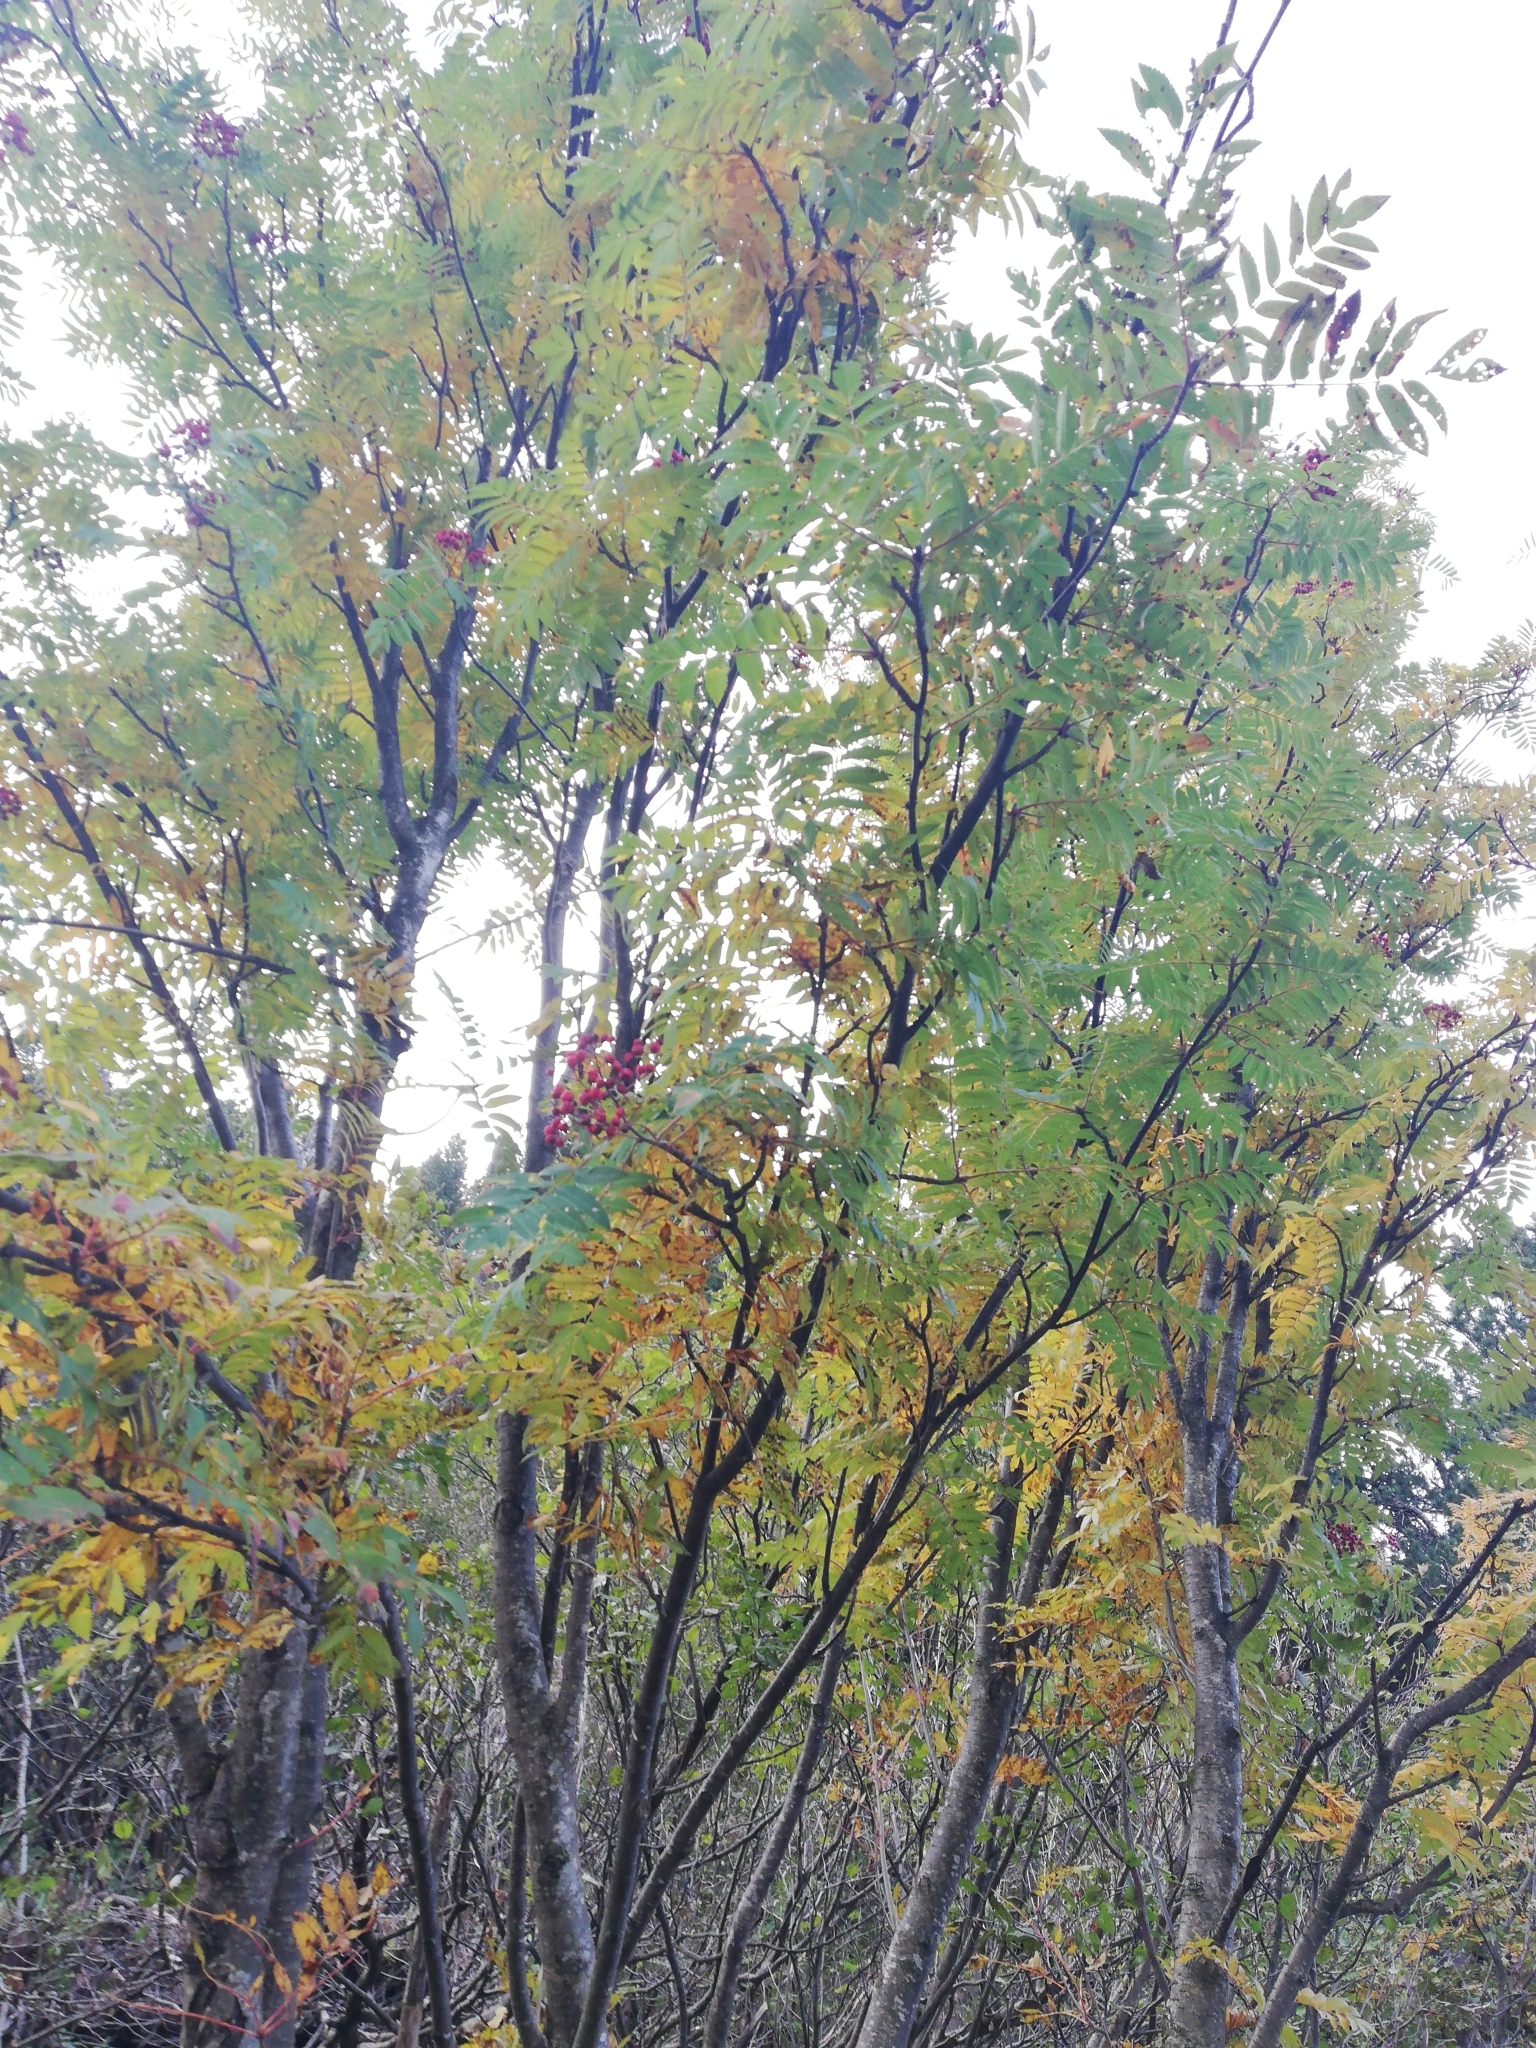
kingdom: Plantae
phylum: Tracheophyta
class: Magnoliopsida
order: Rosales
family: Rosaceae
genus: Sorbus
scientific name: Sorbus aucuparia
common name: Rowan
